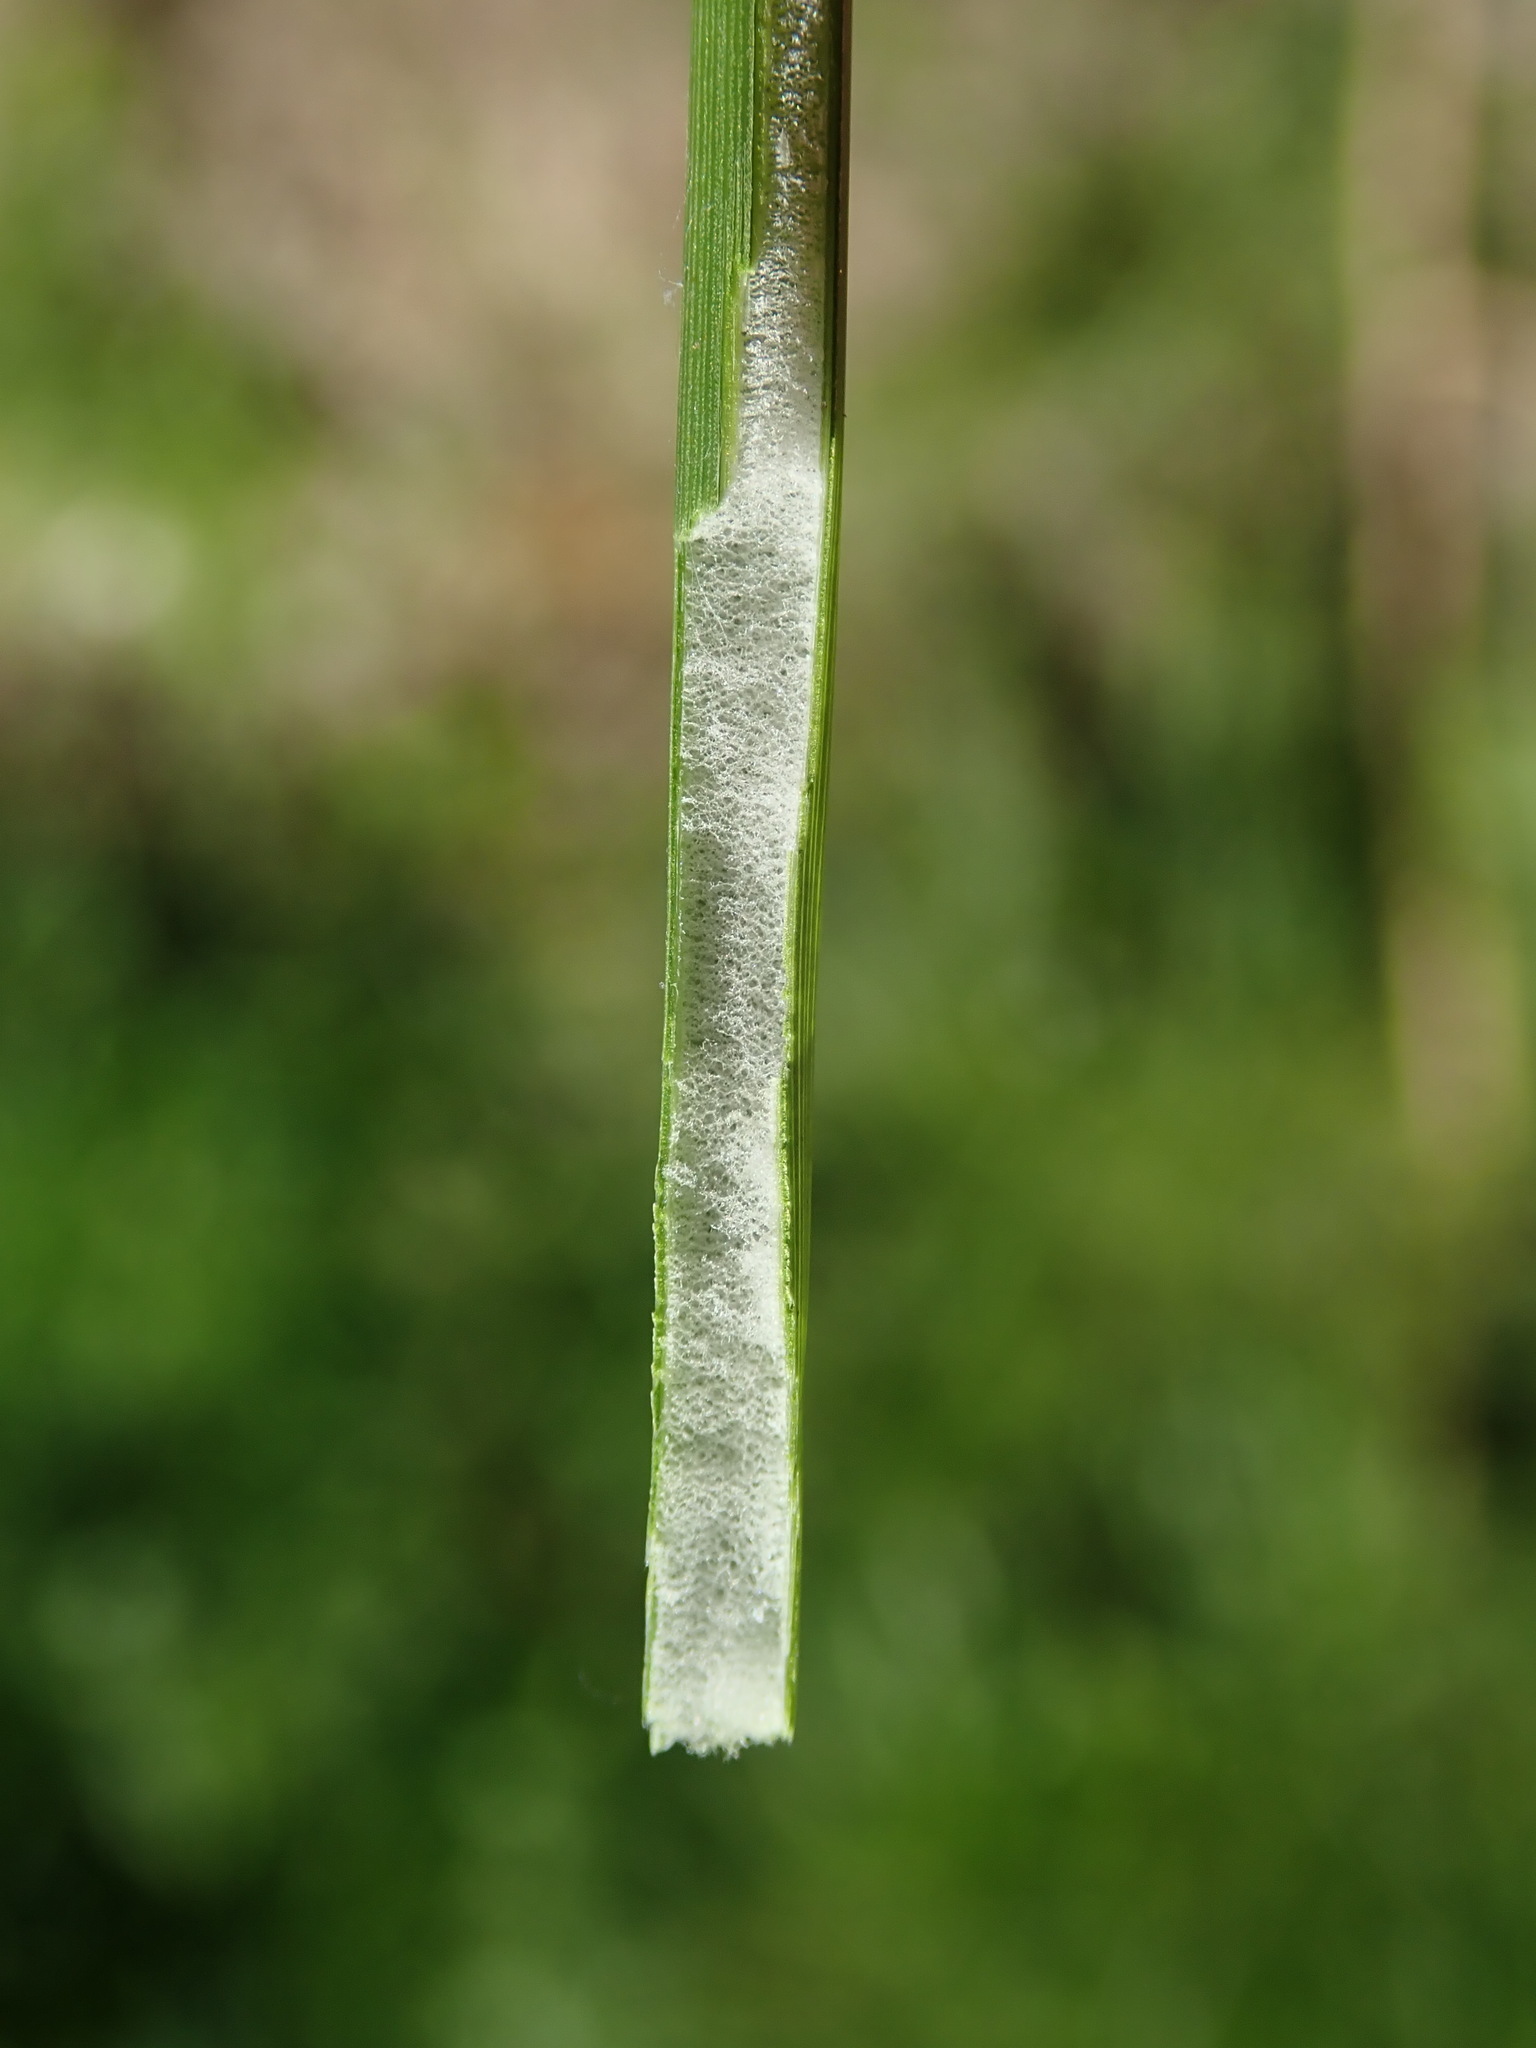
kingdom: Plantae
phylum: Tracheophyta
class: Liliopsida
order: Poales
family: Juncaceae
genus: Juncus
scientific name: Juncus effusus
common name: Soft rush
